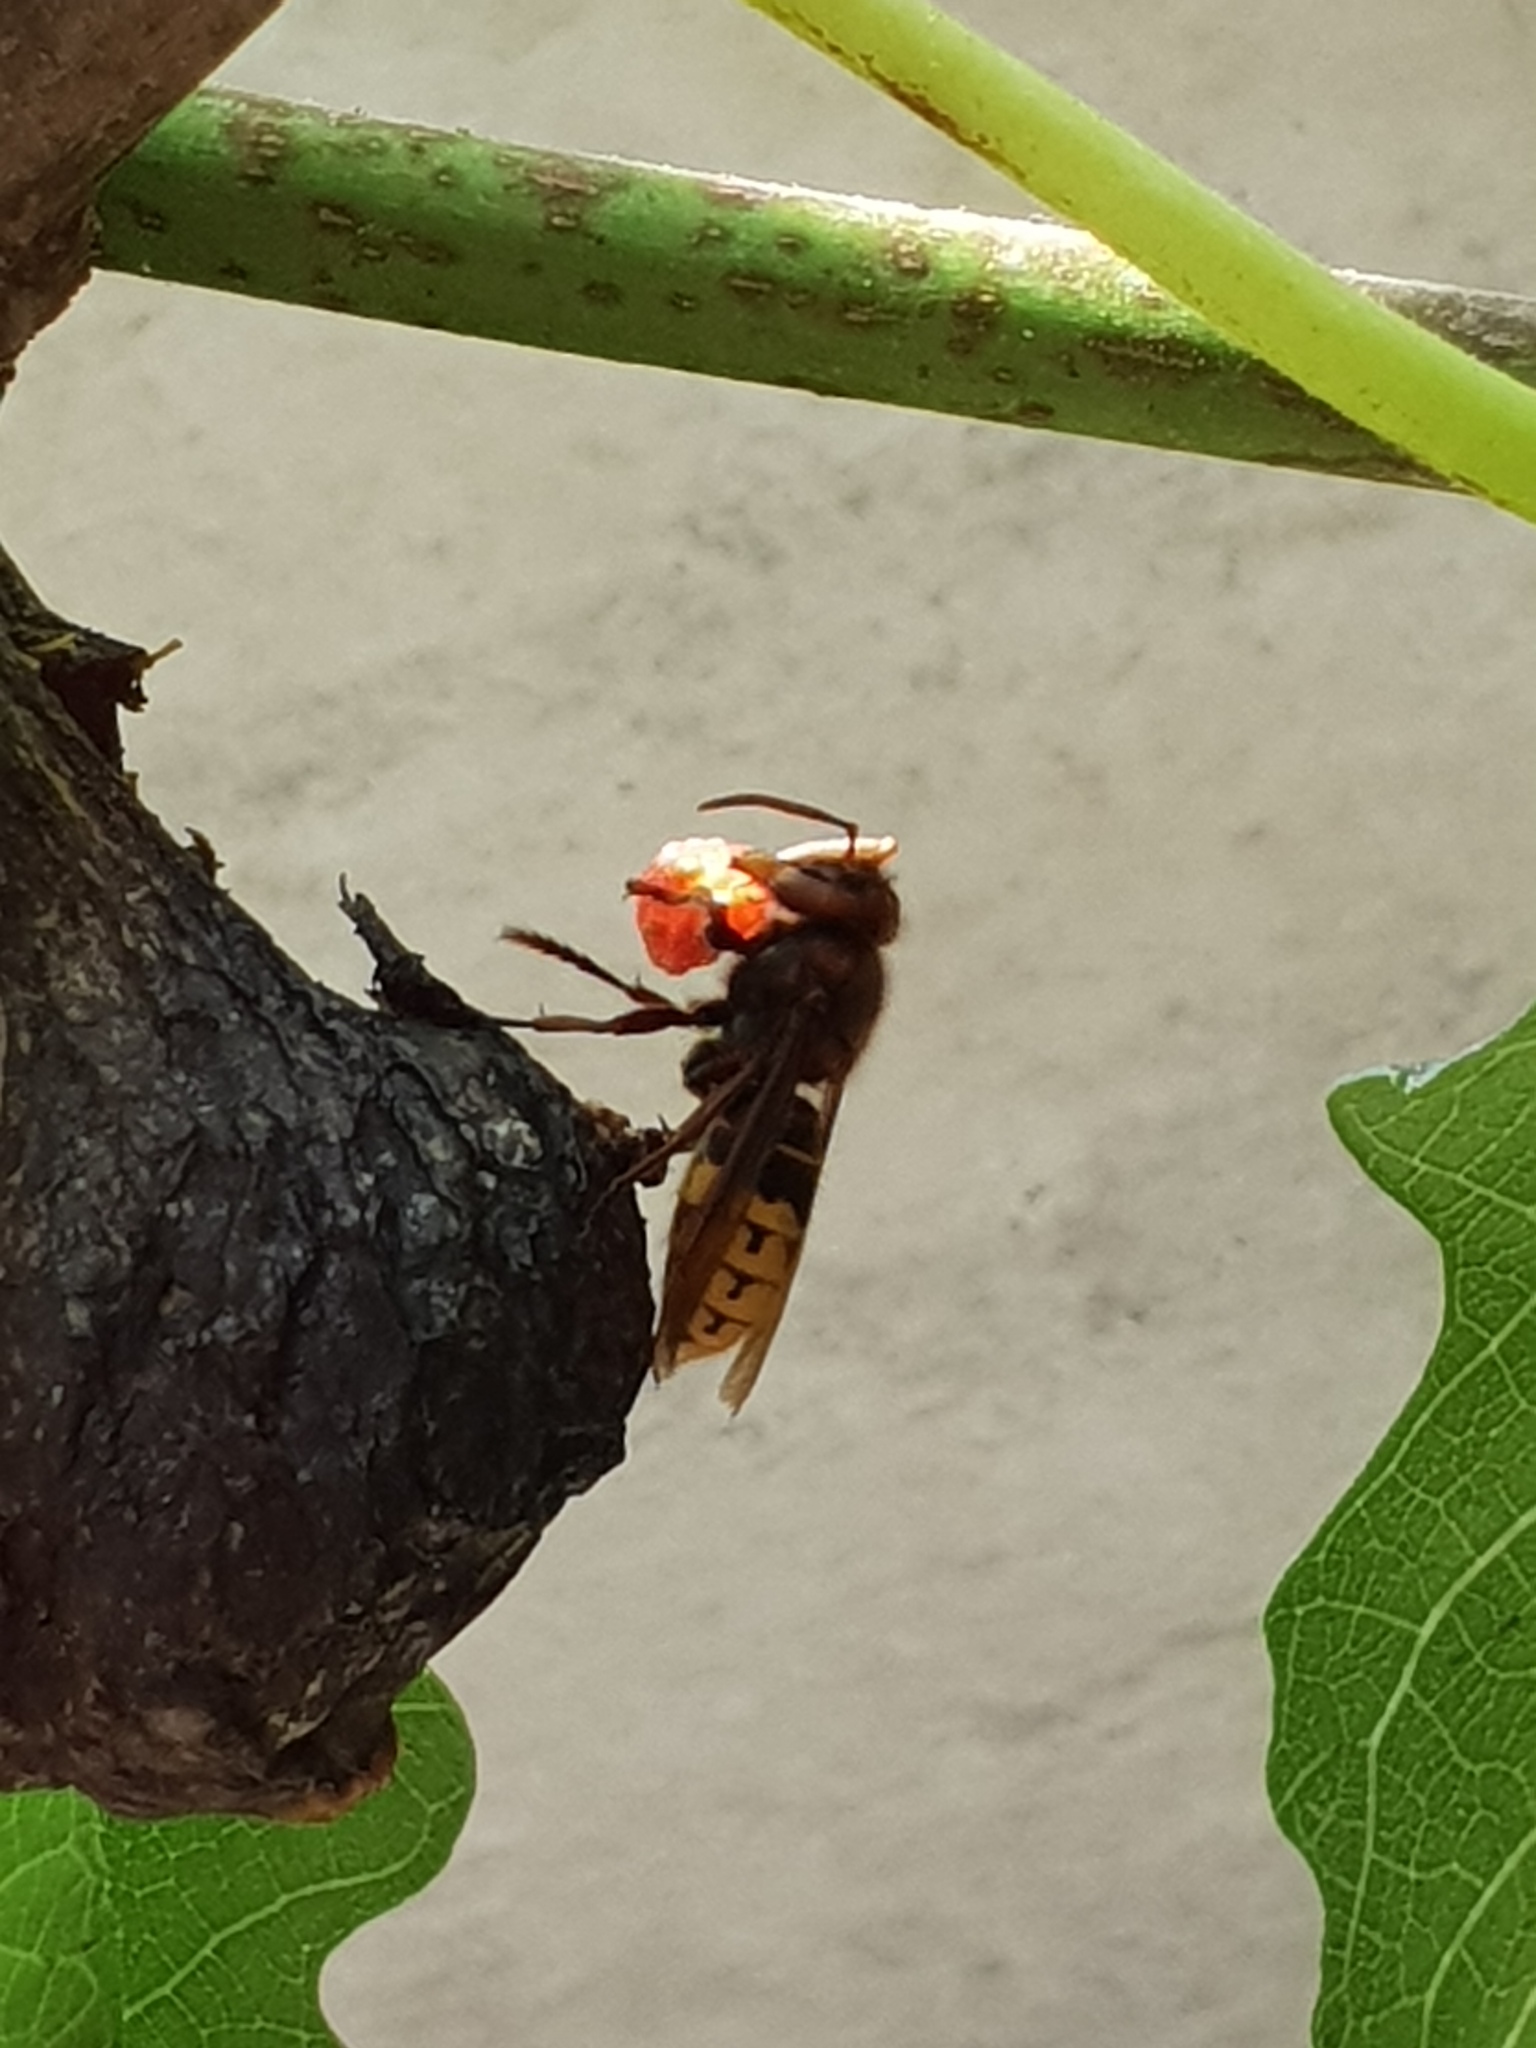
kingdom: Animalia
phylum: Arthropoda
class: Insecta
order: Hymenoptera
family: Vespidae
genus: Vespa
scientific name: Vespa crabro
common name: Hornet
